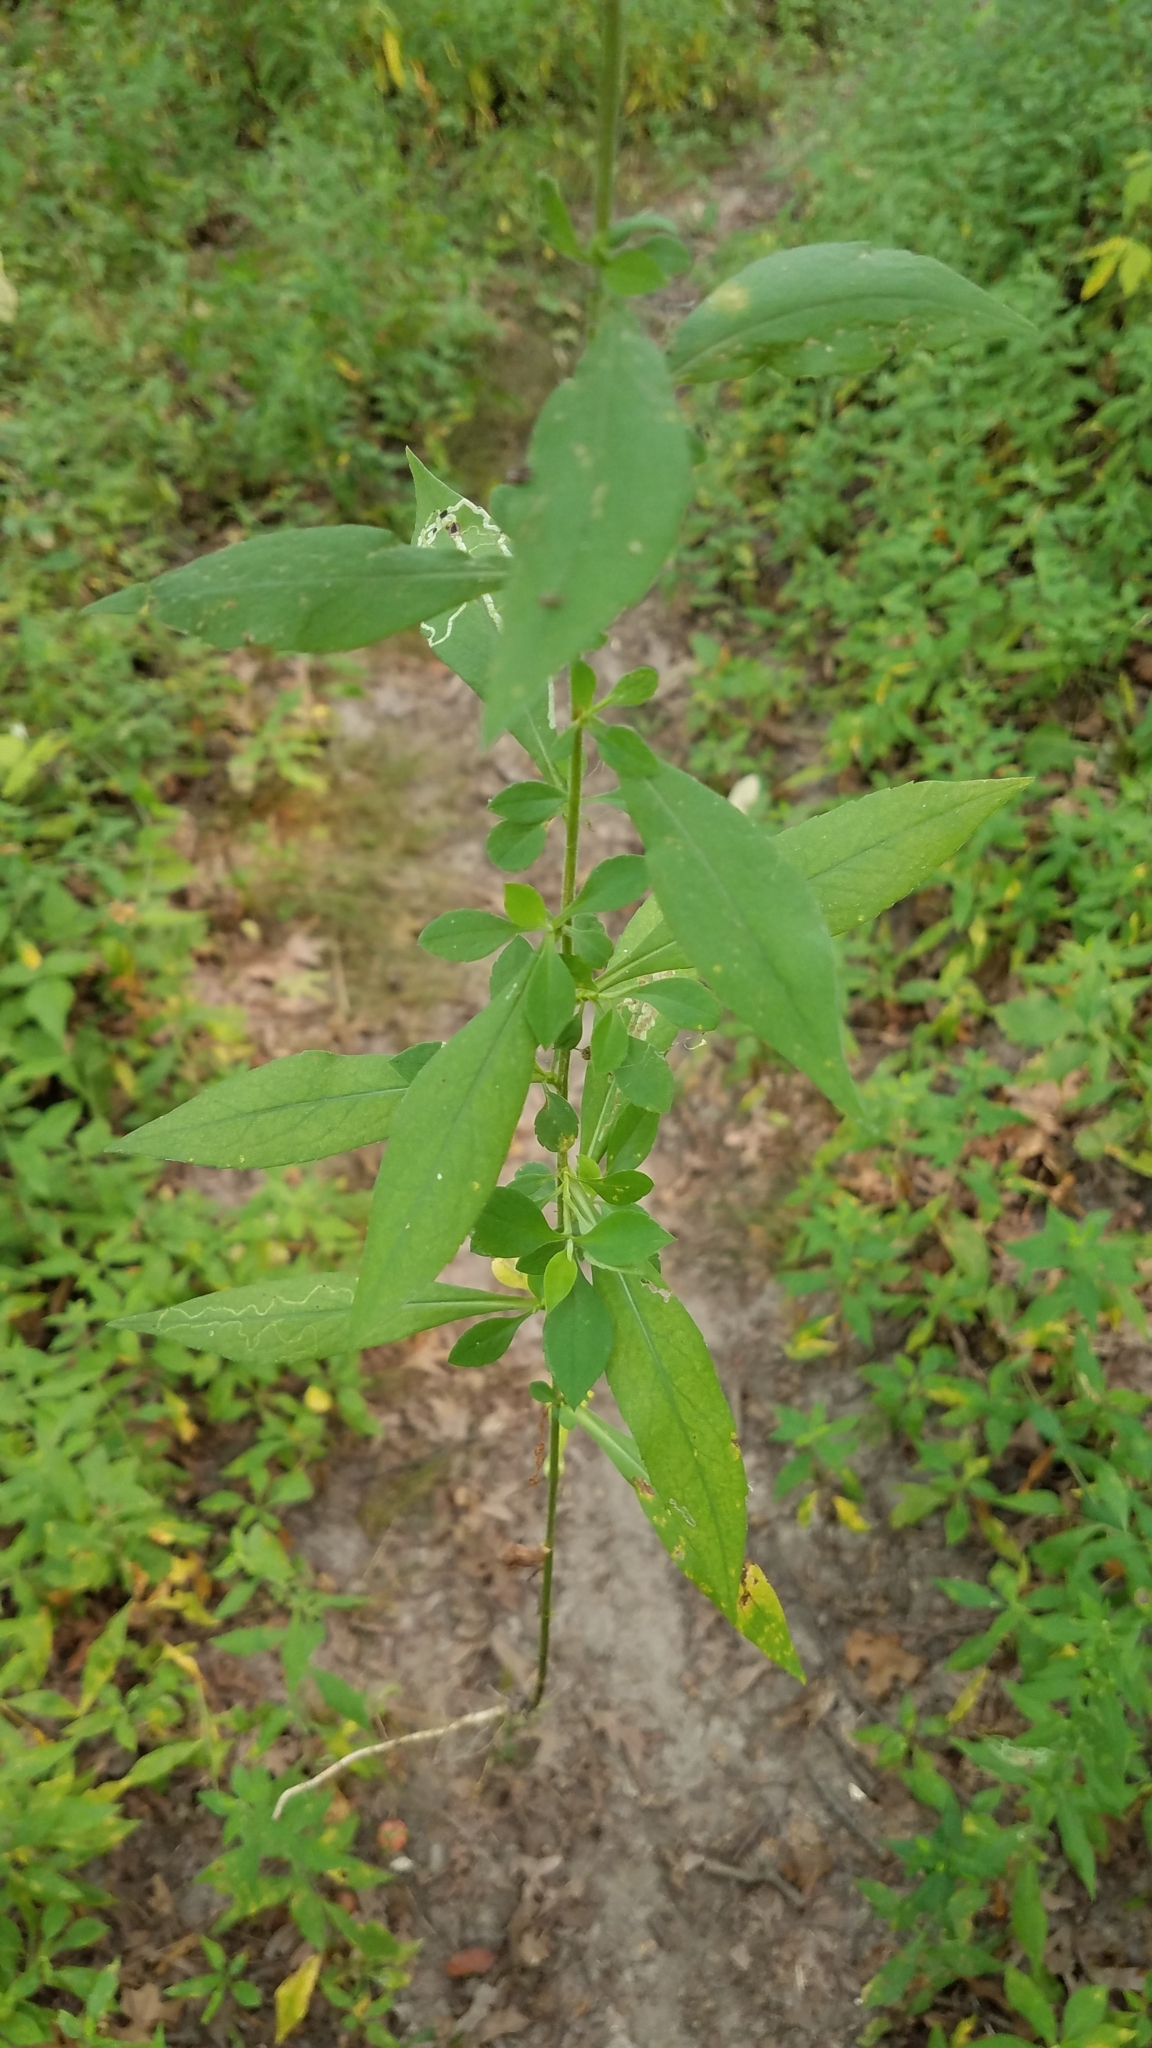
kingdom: Plantae
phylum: Tracheophyta
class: Magnoliopsida
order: Asterales
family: Asteraceae
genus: Ambrosia
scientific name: Ambrosia trifida
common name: Giant ragweed
